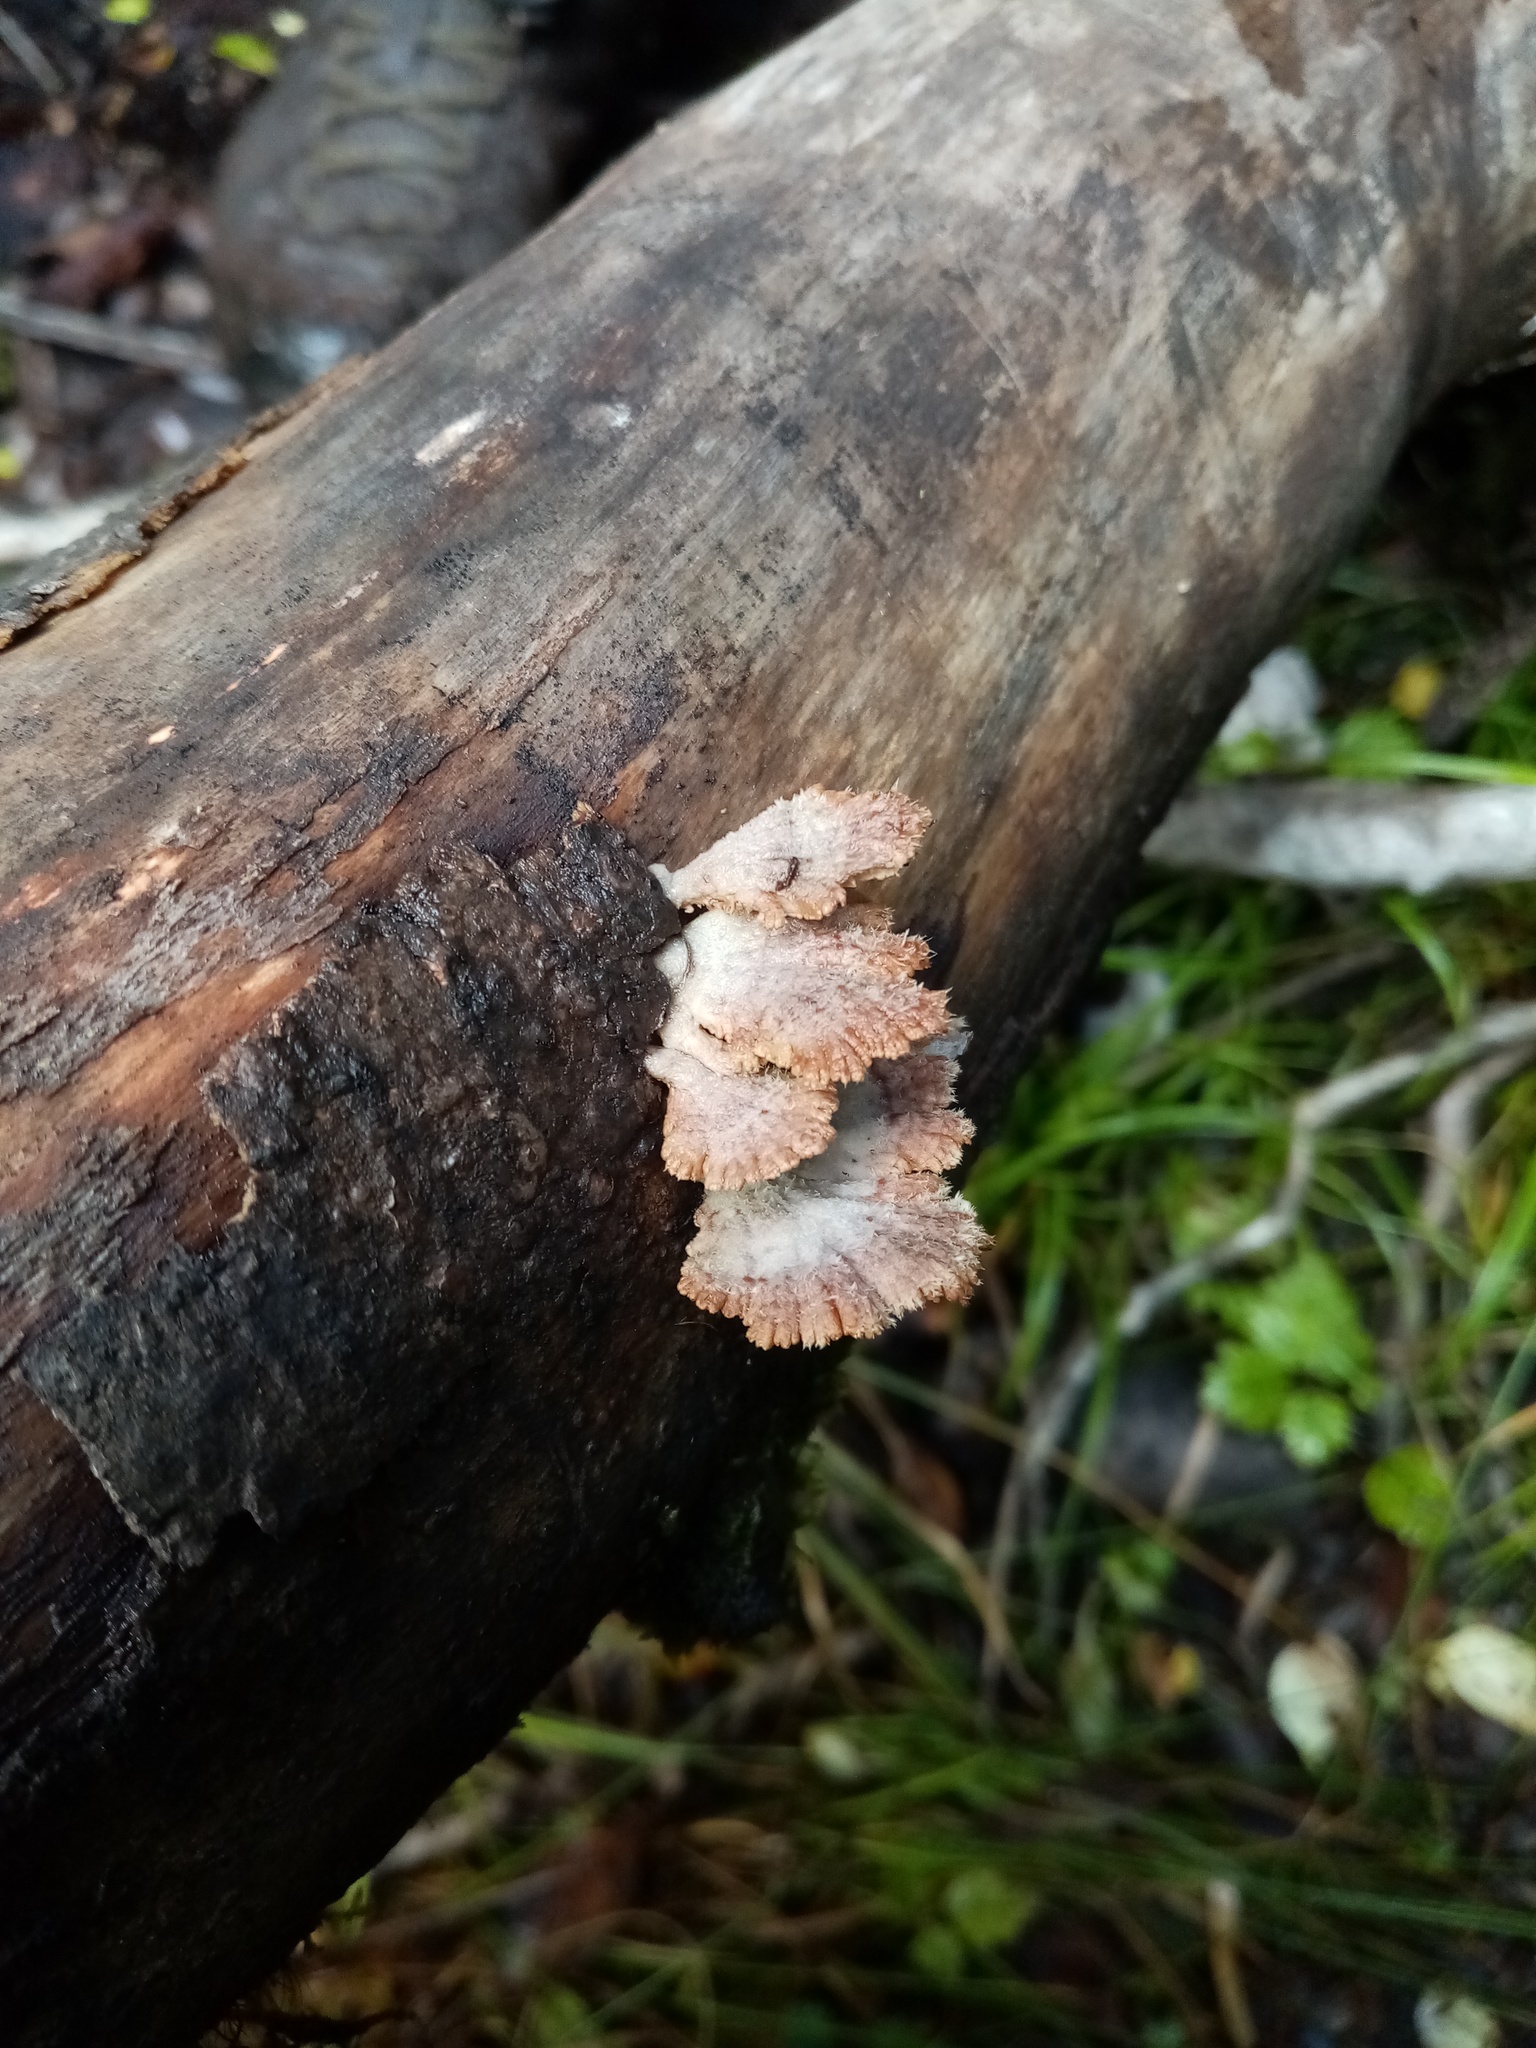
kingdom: Fungi
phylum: Basidiomycota
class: Agaricomycetes
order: Agaricales
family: Schizophyllaceae
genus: Schizophyllum
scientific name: Schizophyllum commune
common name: Common porecrust
